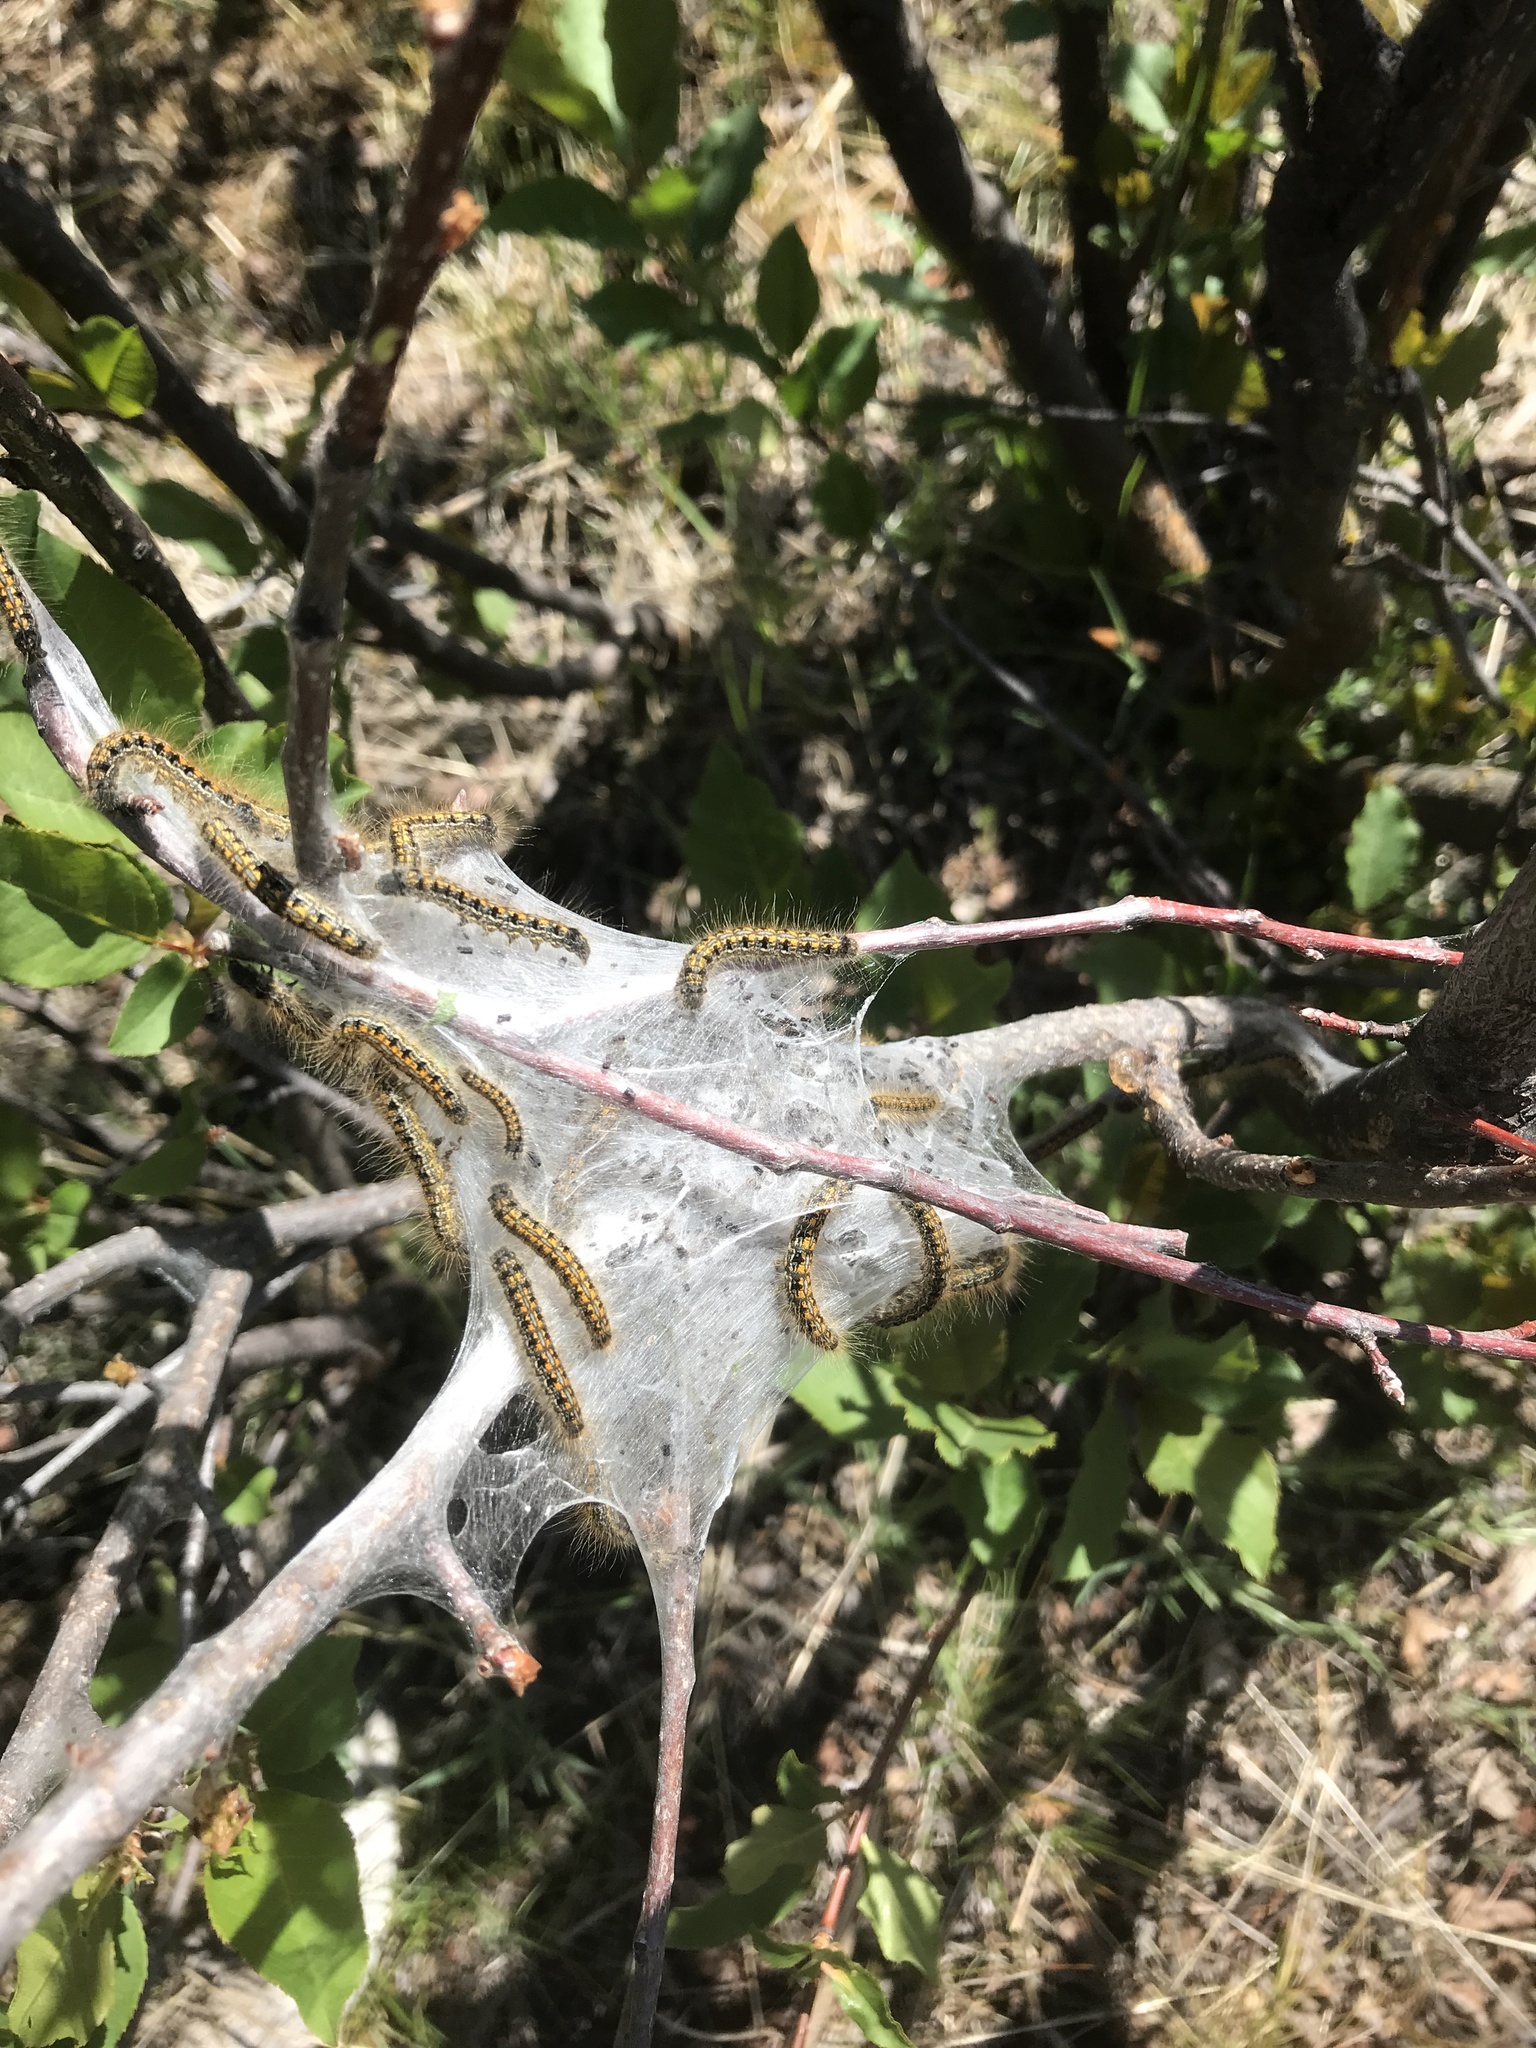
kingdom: Animalia
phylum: Arthropoda
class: Insecta
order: Lepidoptera
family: Lasiocampidae
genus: Malacosoma
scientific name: Malacosoma californica
